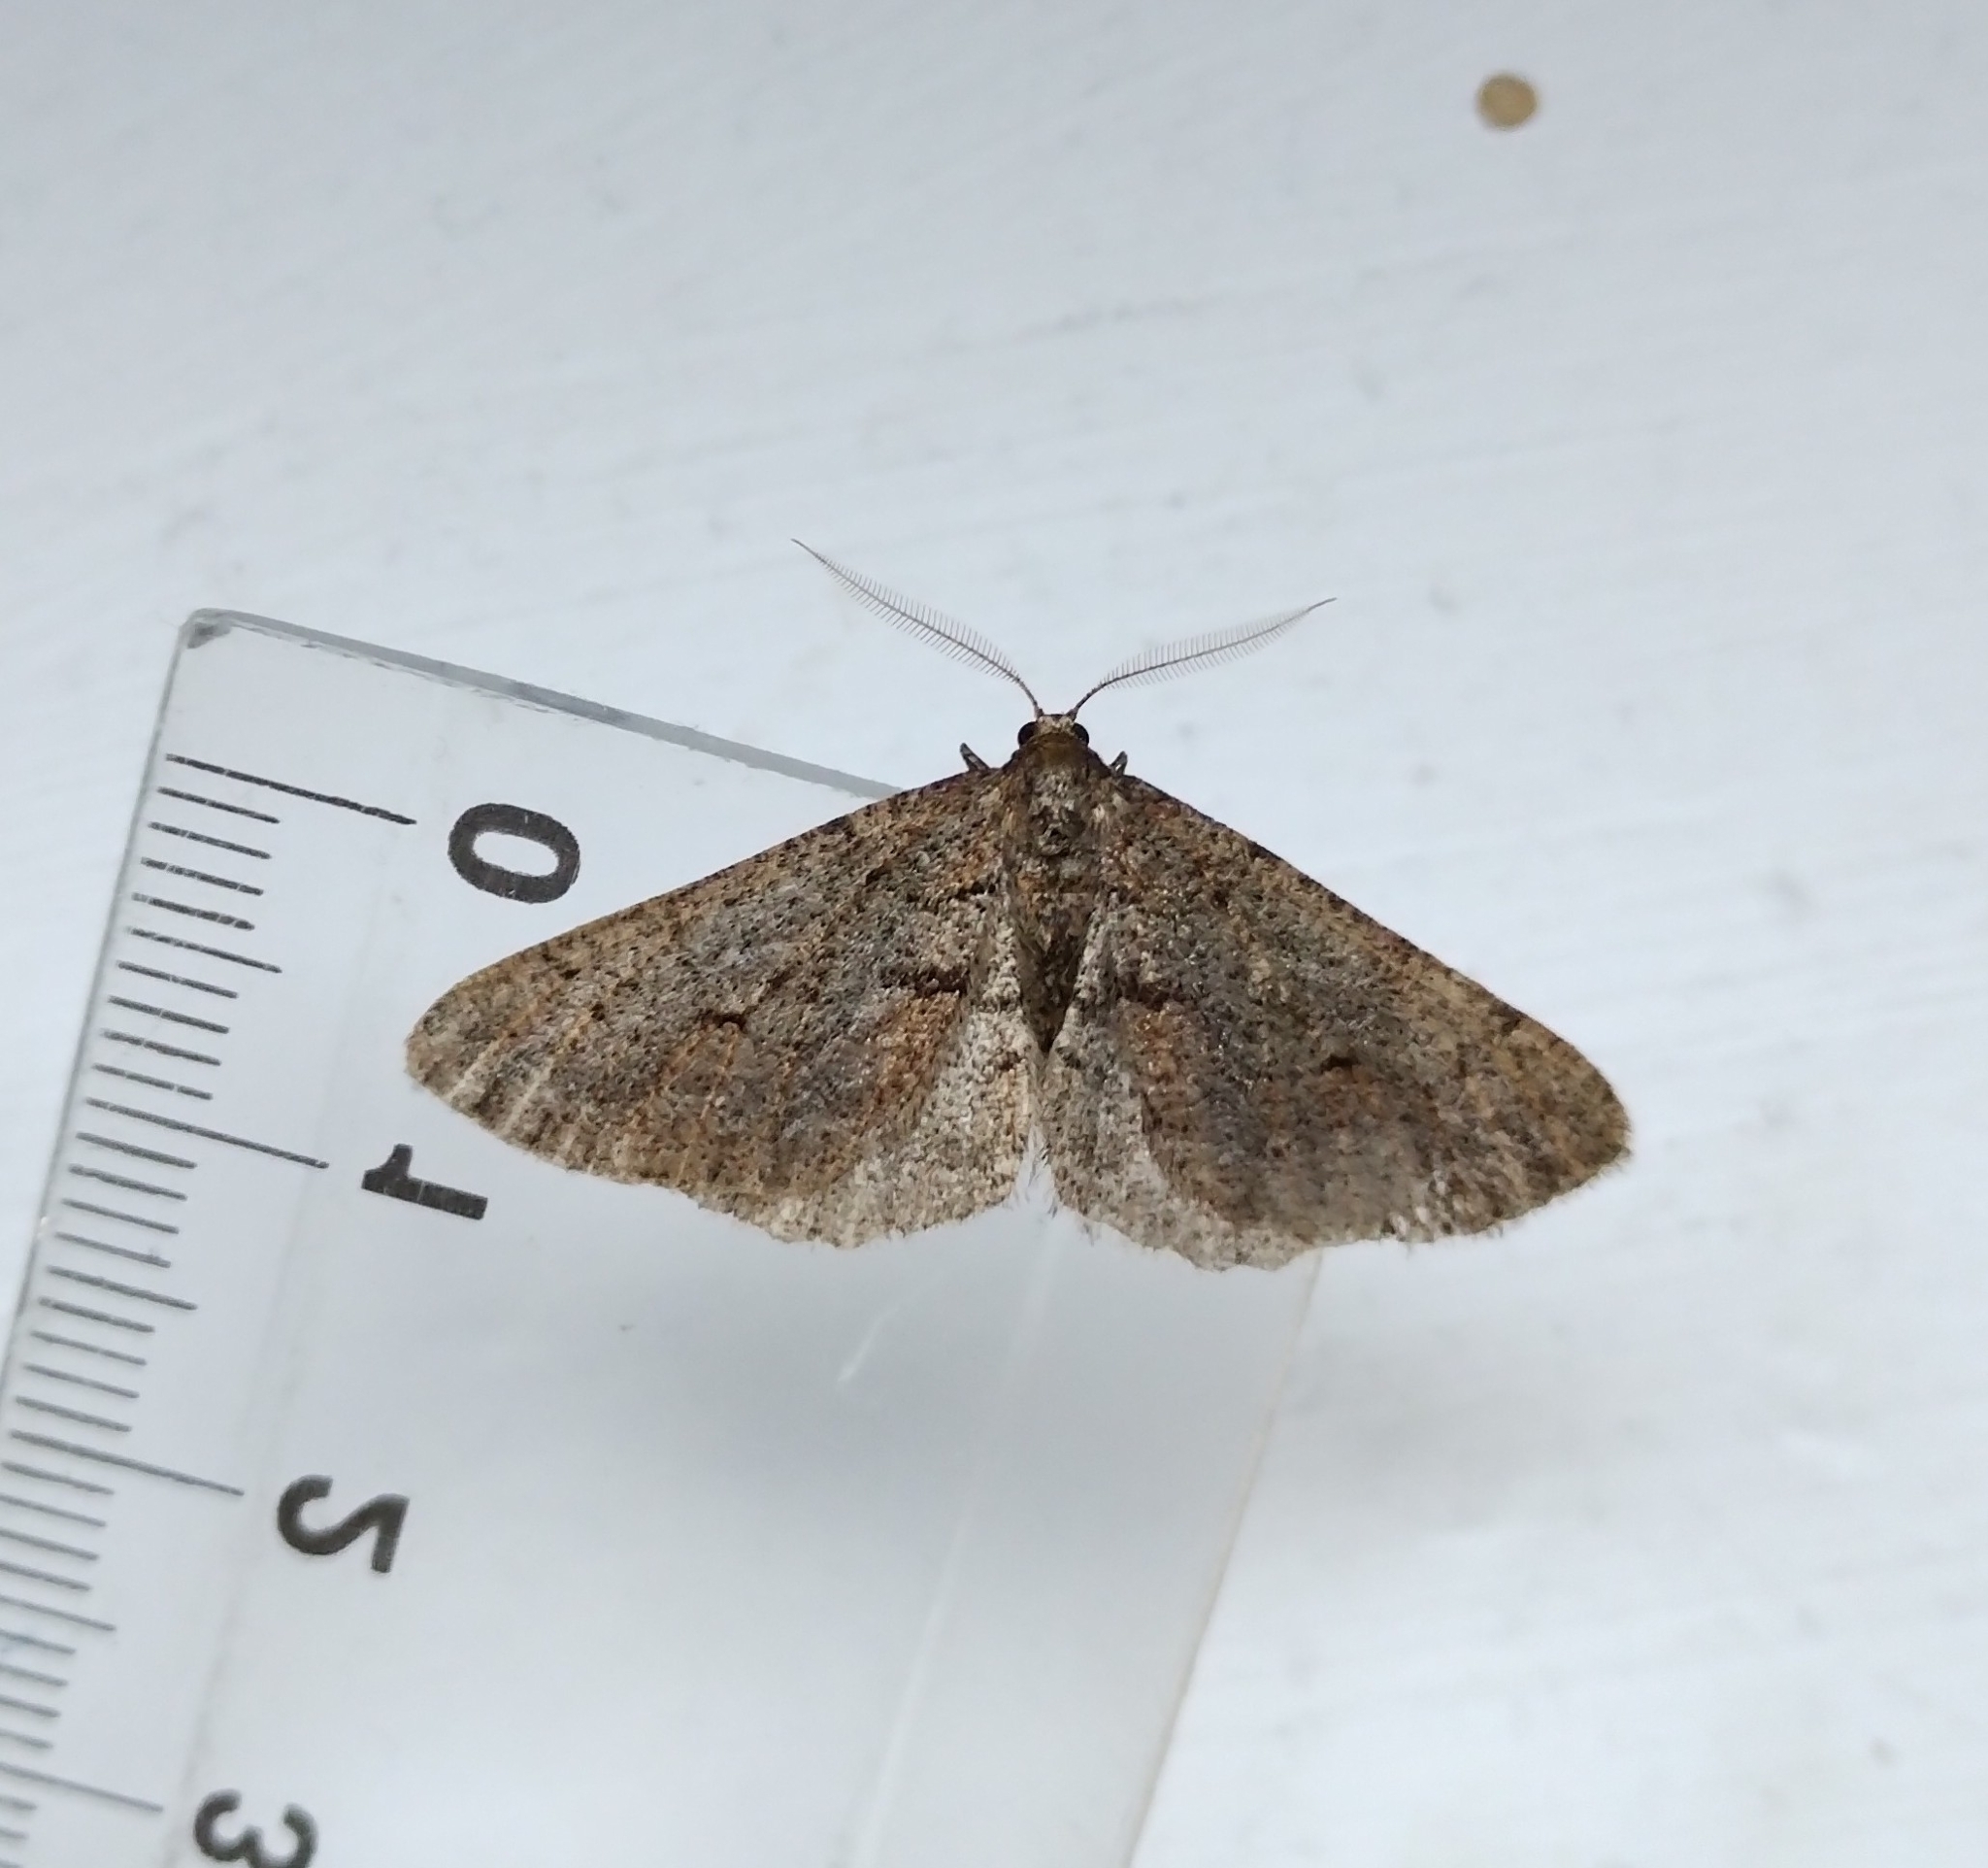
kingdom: Animalia
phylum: Arthropoda
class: Insecta
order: Lepidoptera
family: Geometridae
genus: Agriopis
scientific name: Agriopis bajaria
